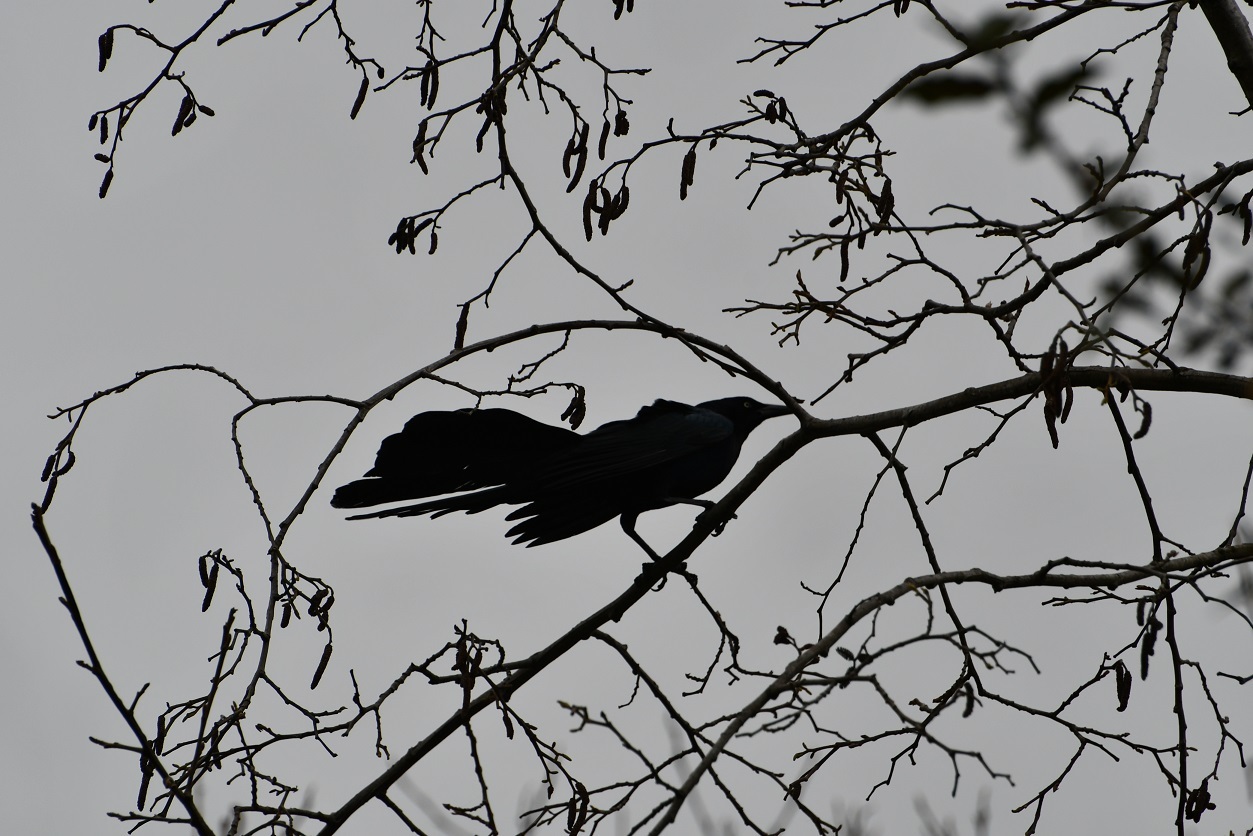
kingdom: Animalia
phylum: Chordata
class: Aves
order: Passeriformes
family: Icteridae
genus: Quiscalus
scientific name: Quiscalus mexicanus
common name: Great-tailed grackle
